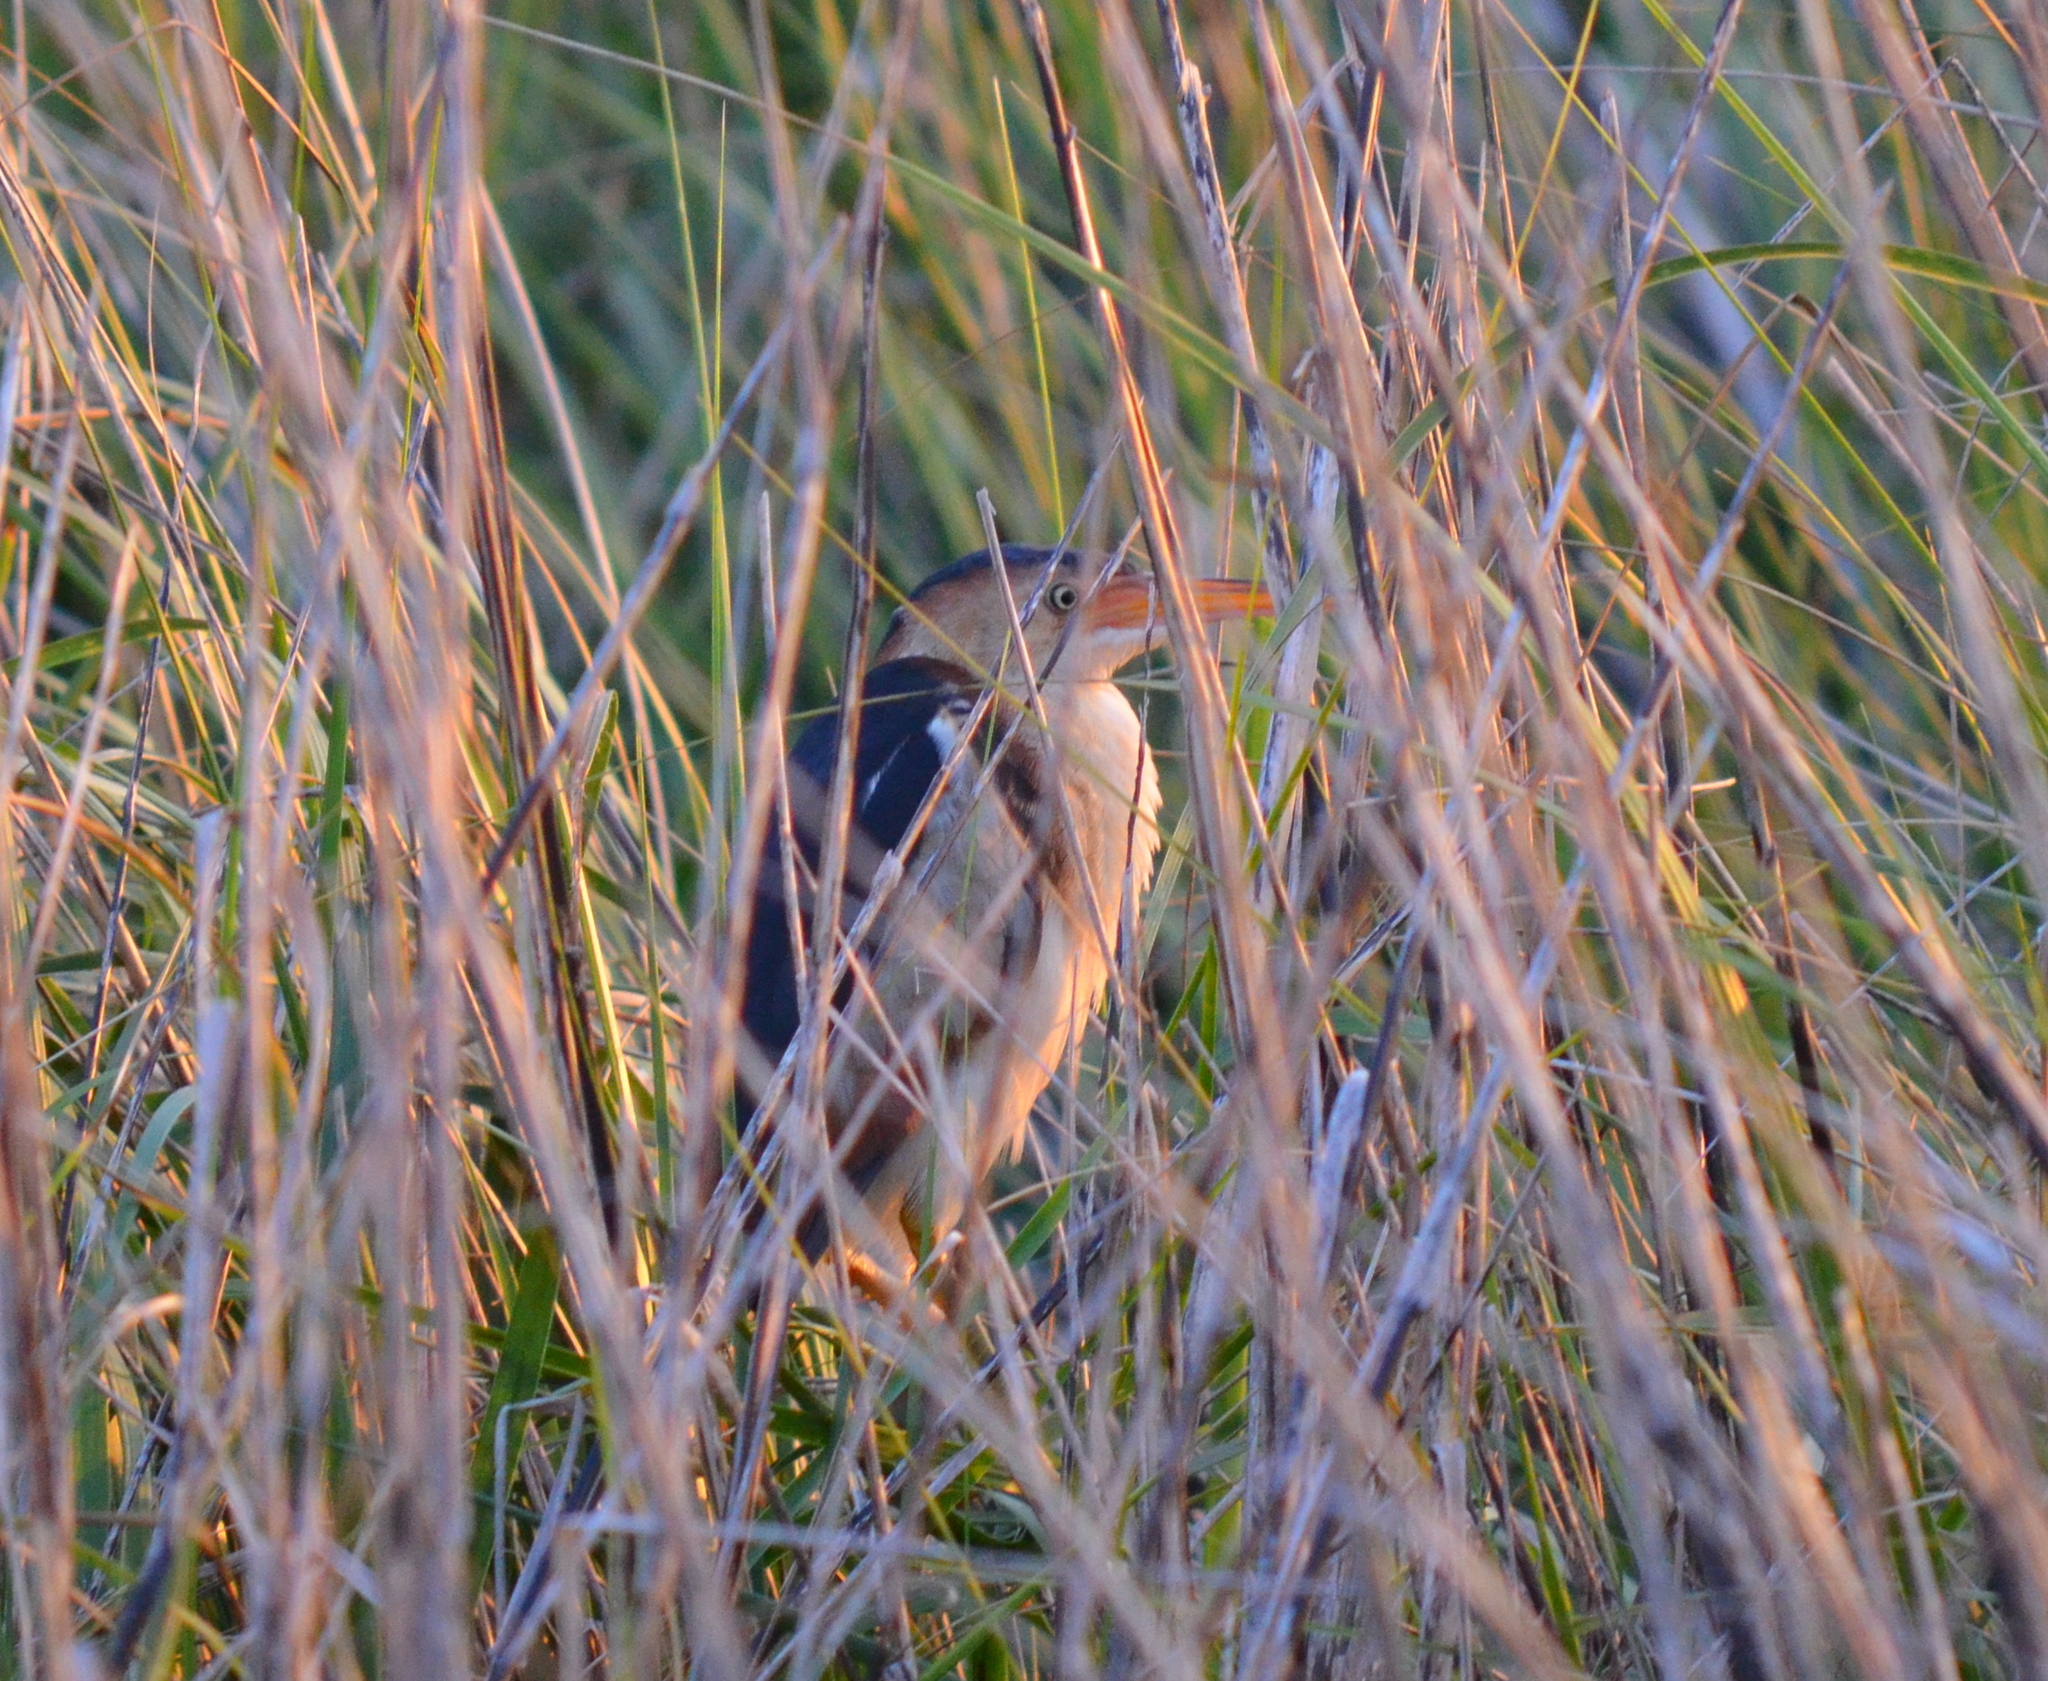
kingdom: Animalia
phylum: Chordata
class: Aves
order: Pelecaniformes
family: Ardeidae
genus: Ixobrychus
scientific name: Ixobrychus exilis
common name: Least bittern
